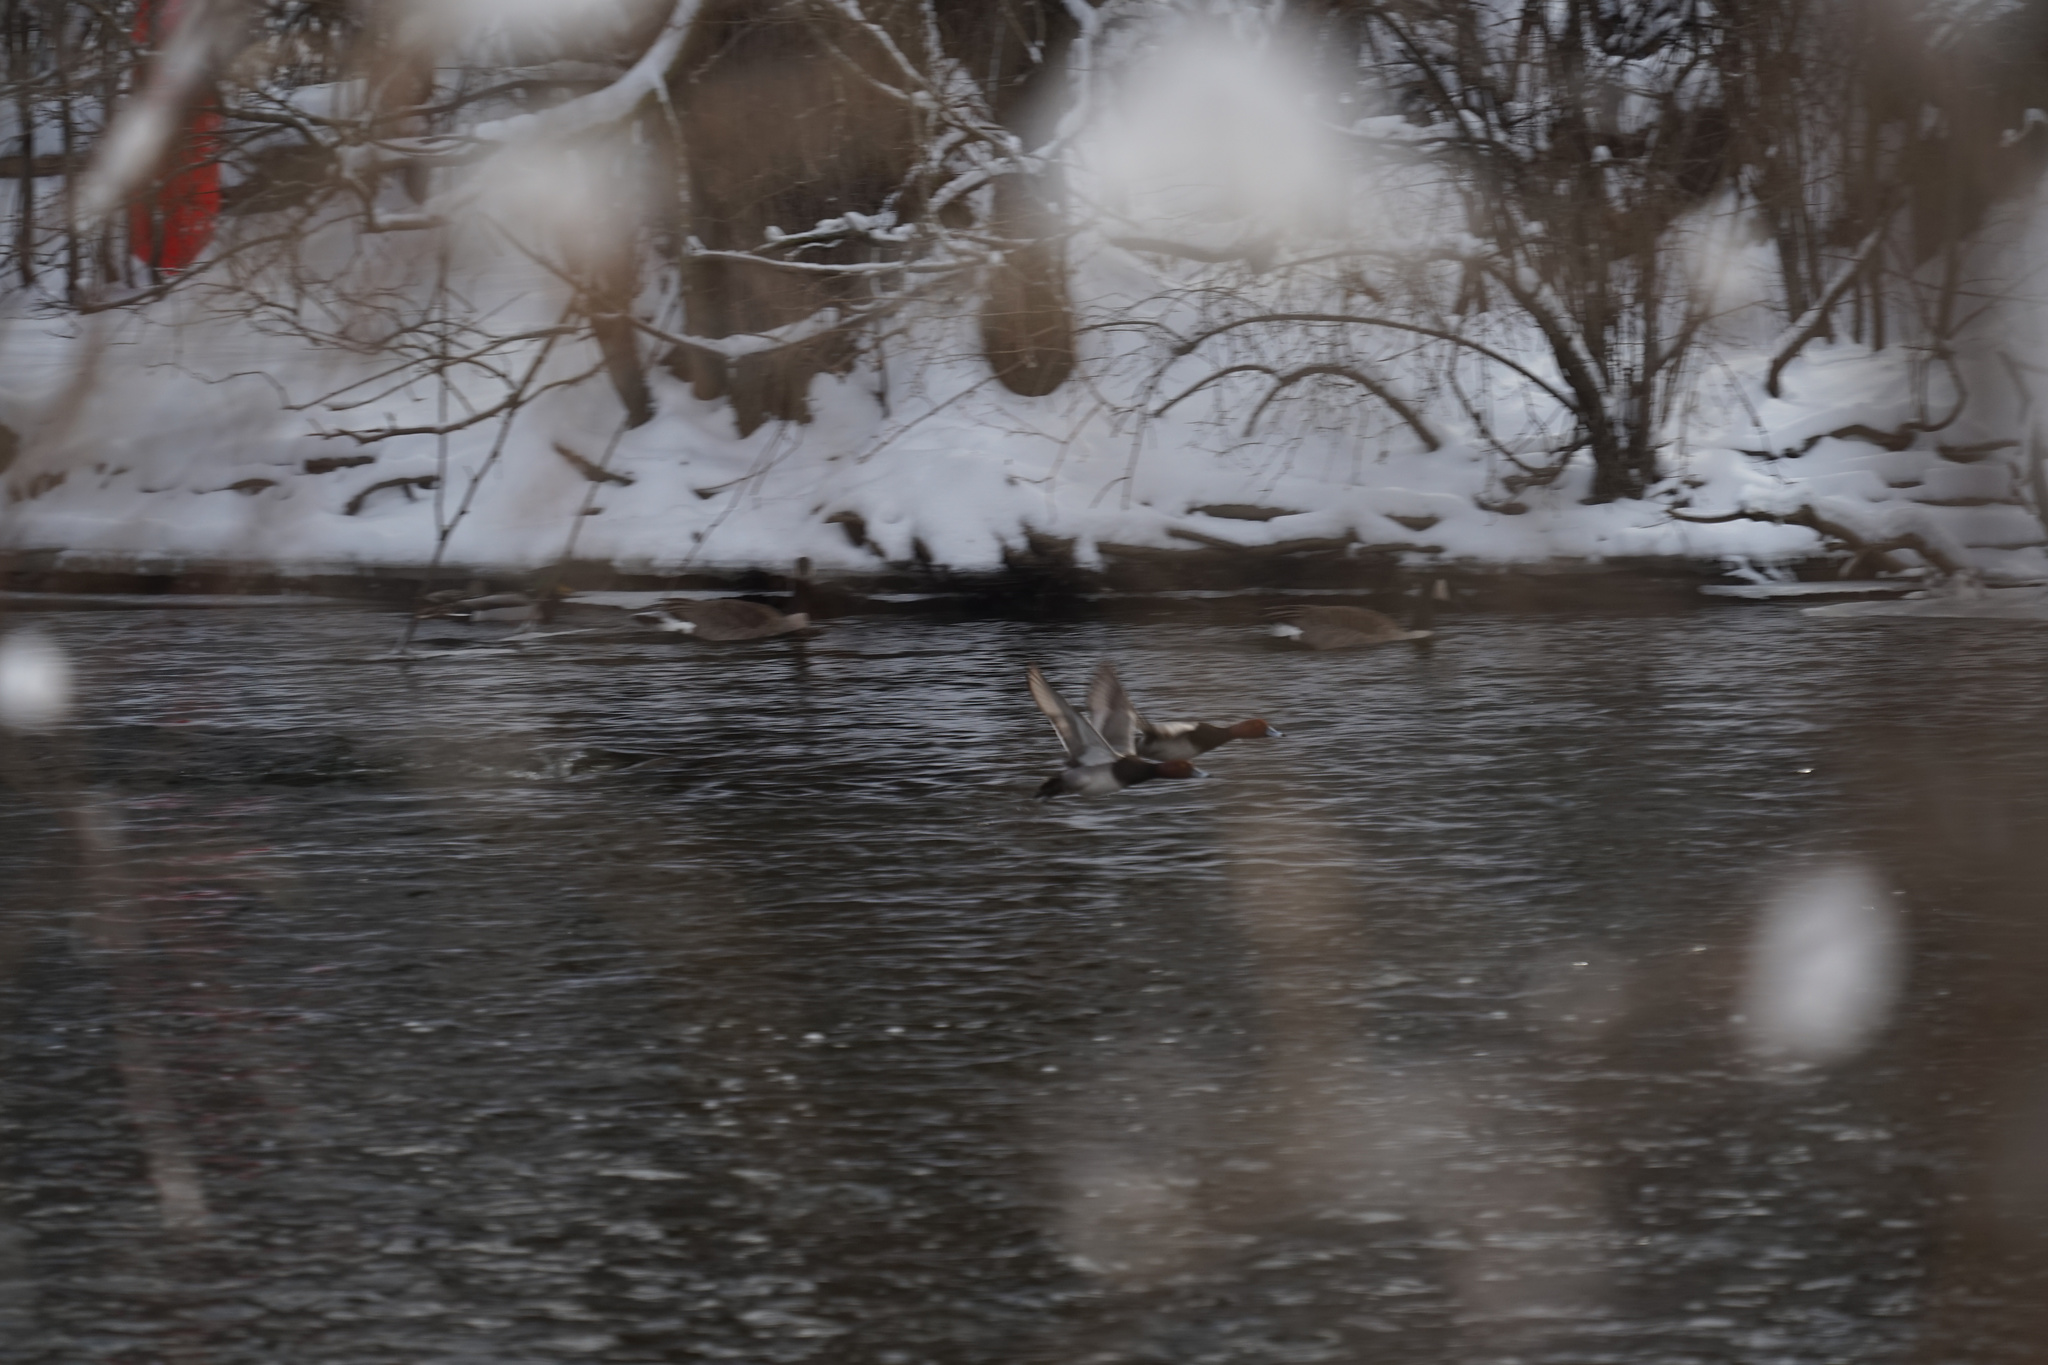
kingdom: Animalia
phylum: Chordata
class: Aves
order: Anseriformes
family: Anatidae
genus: Aythya
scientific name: Aythya americana
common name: Redhead
